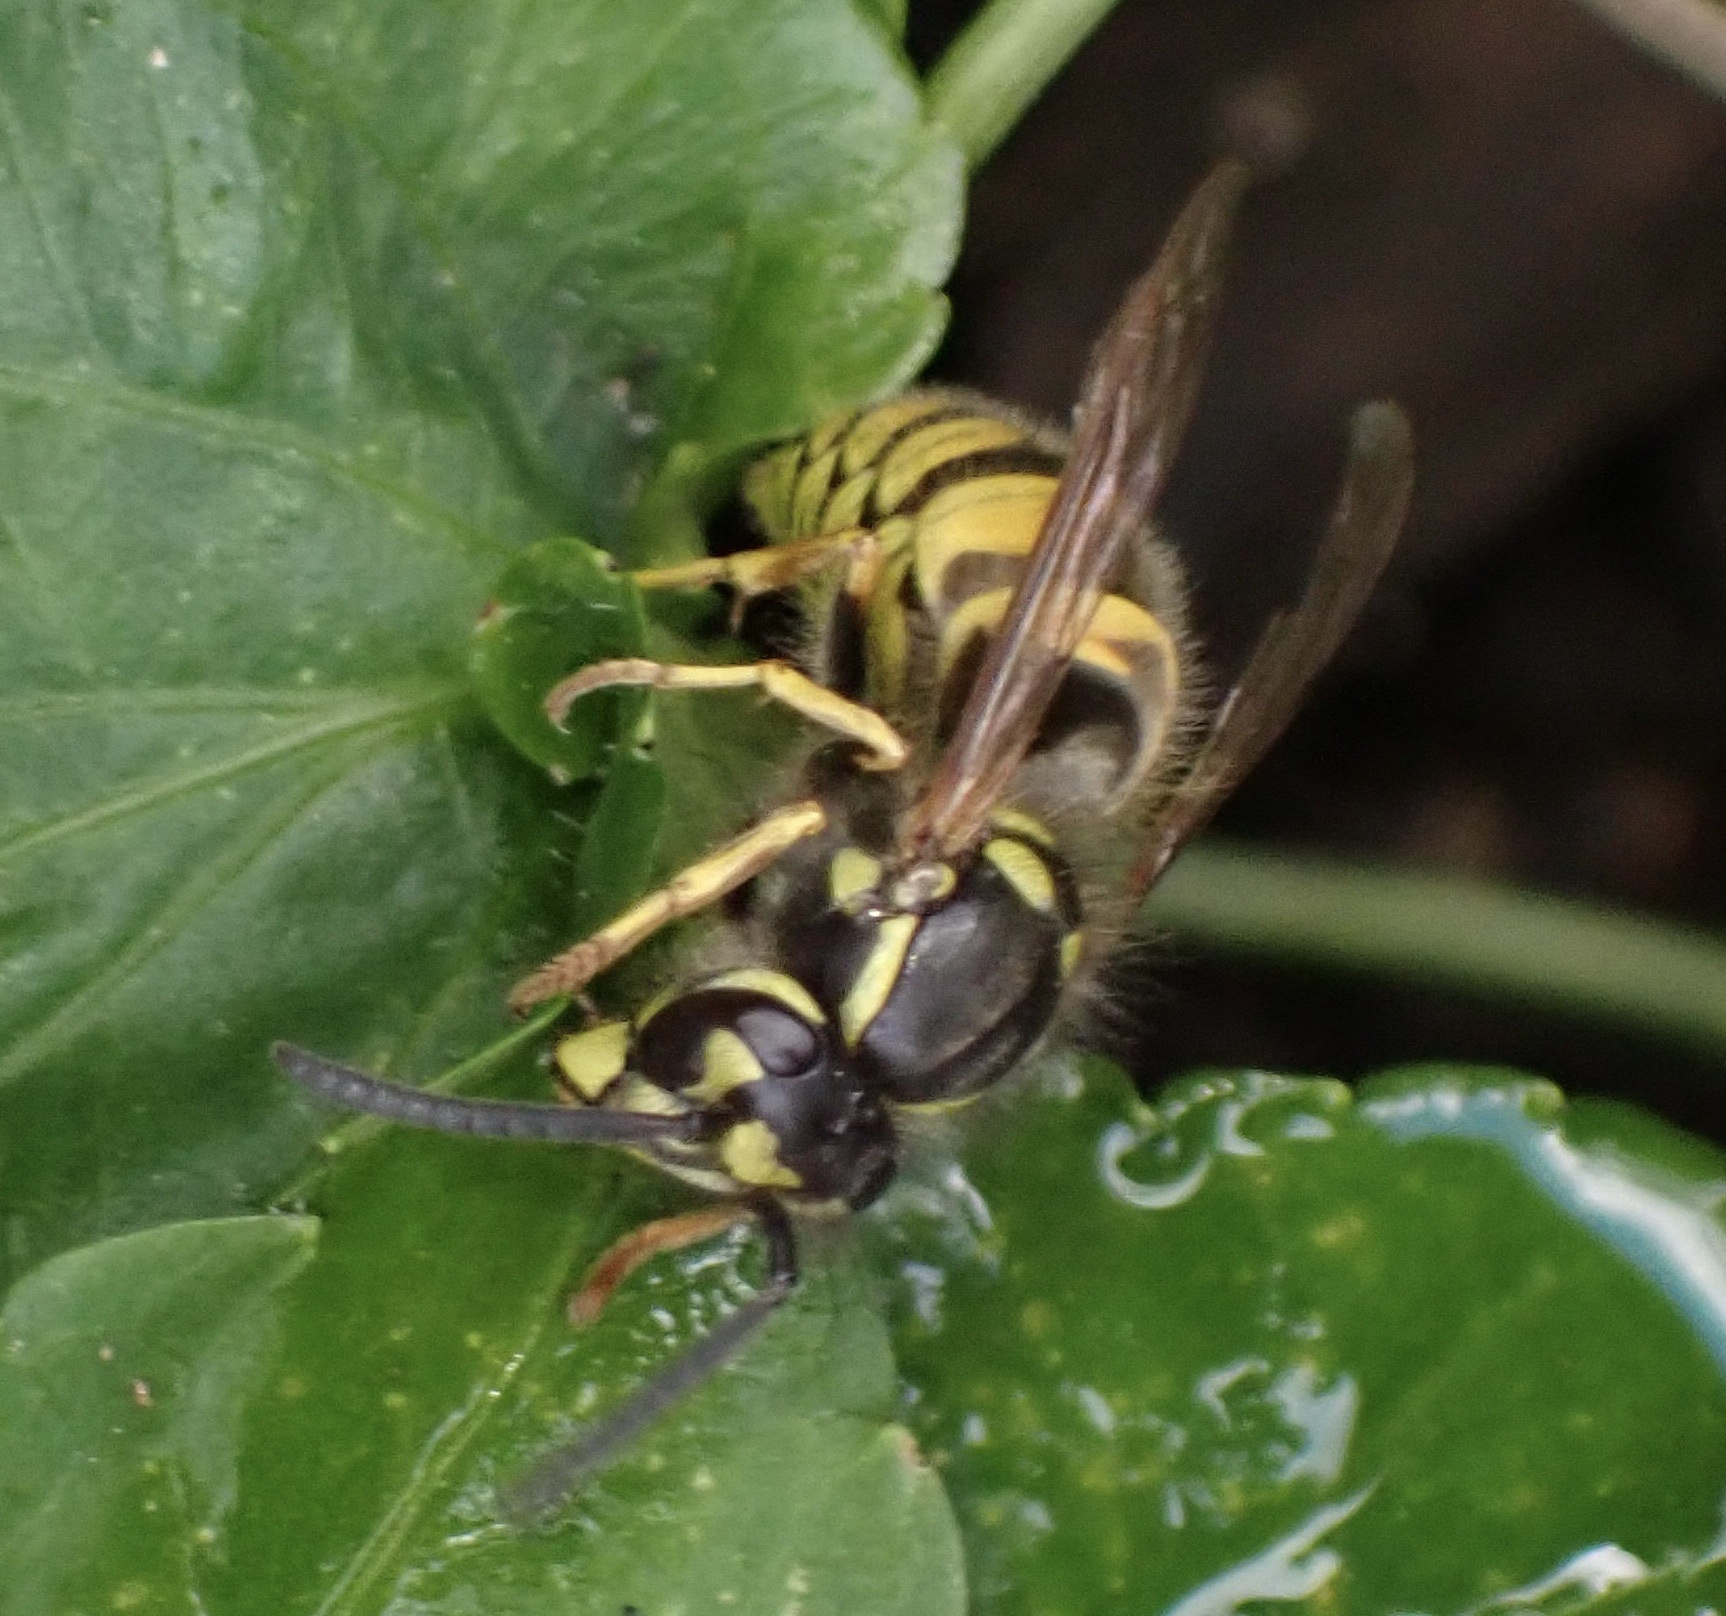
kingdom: Animalia
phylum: Arthropoda
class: Insecta
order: Hymenoptera
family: Vespidae
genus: Vespula
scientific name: Vespula vulgaris
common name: Common wasp
